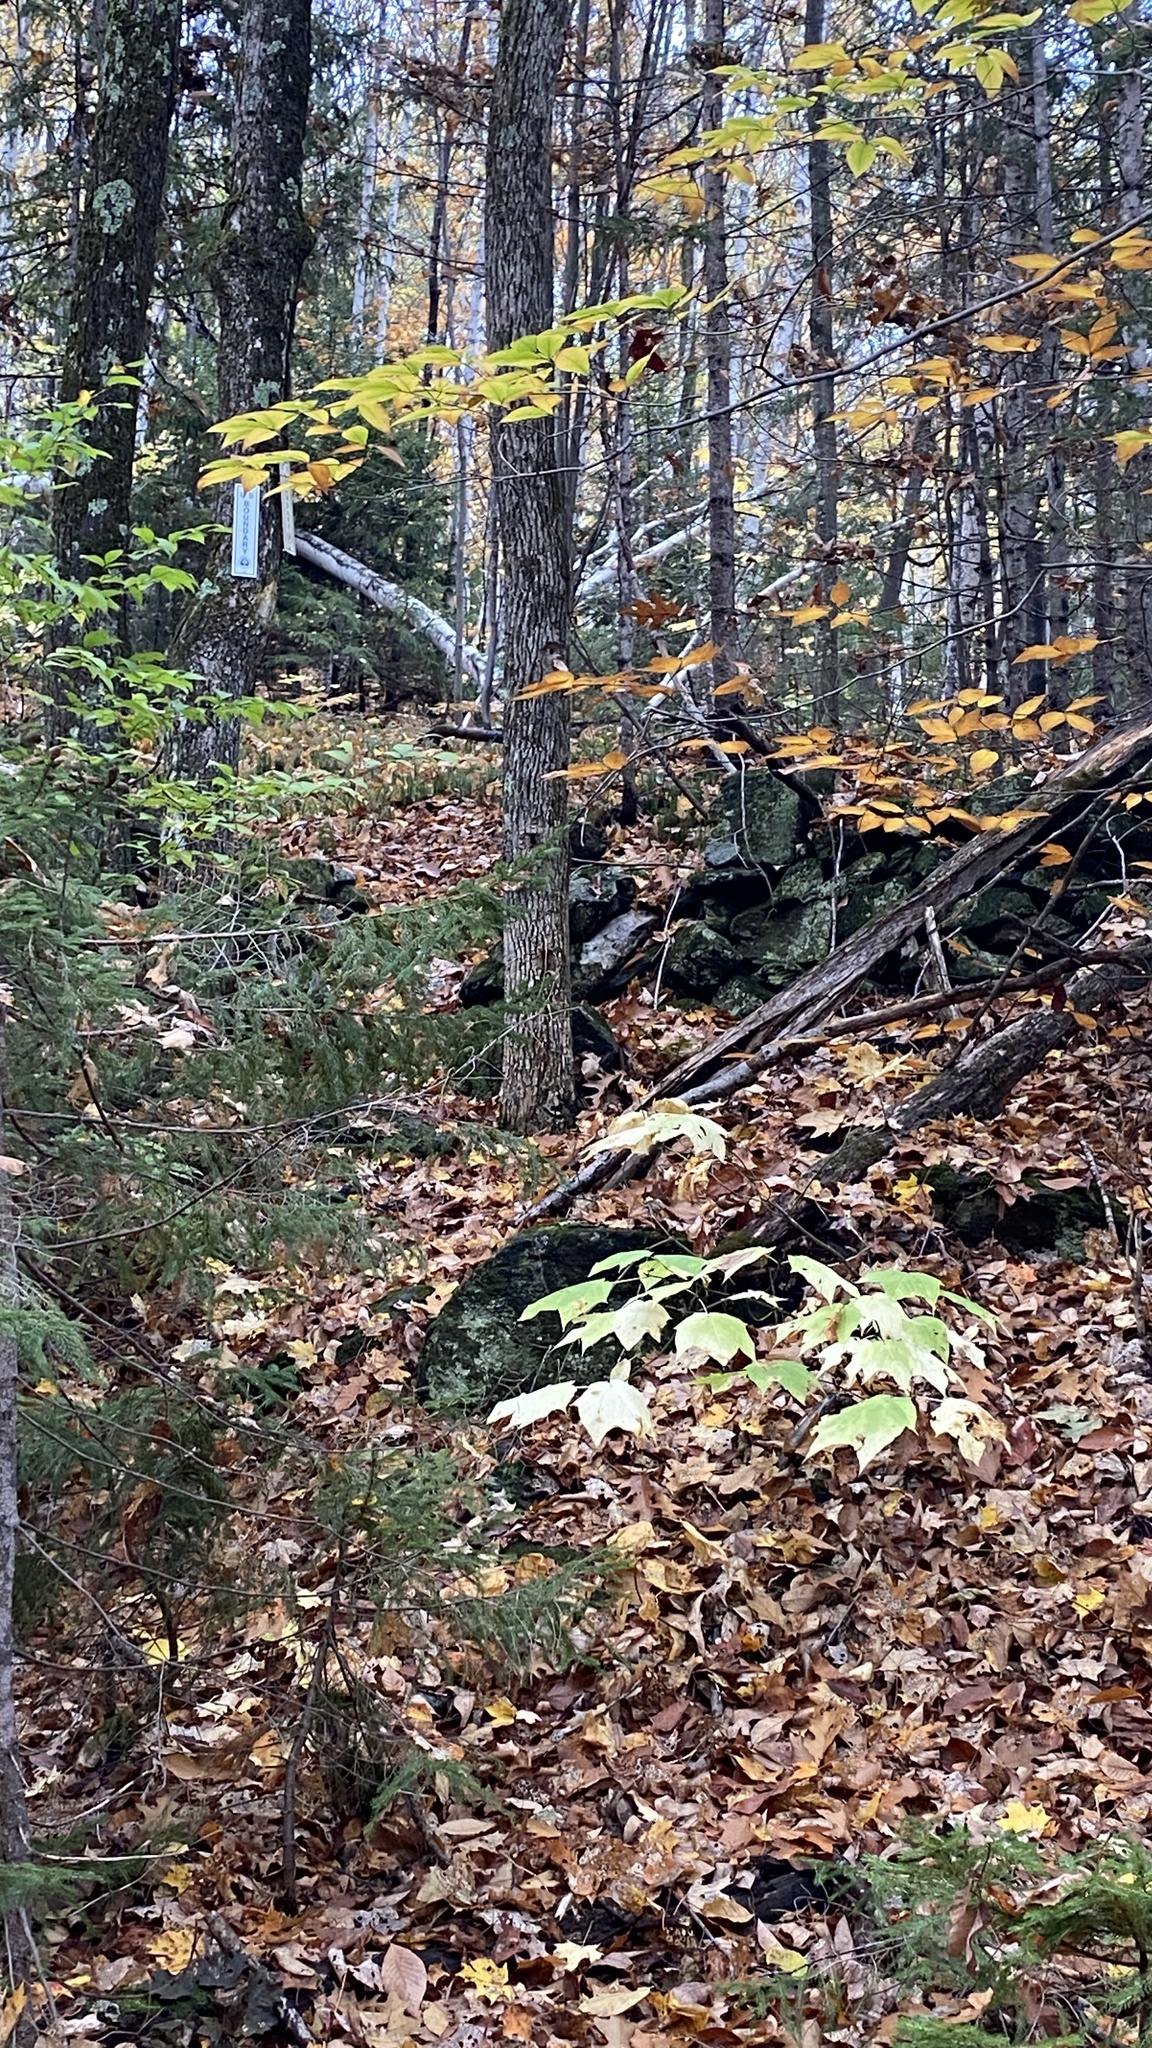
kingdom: Plantae
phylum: Tracheophyta
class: Magnoliopsida
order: Sapindales
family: Sapindaceae
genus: Acer
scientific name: Acer pensylvanicum
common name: Moosewood
